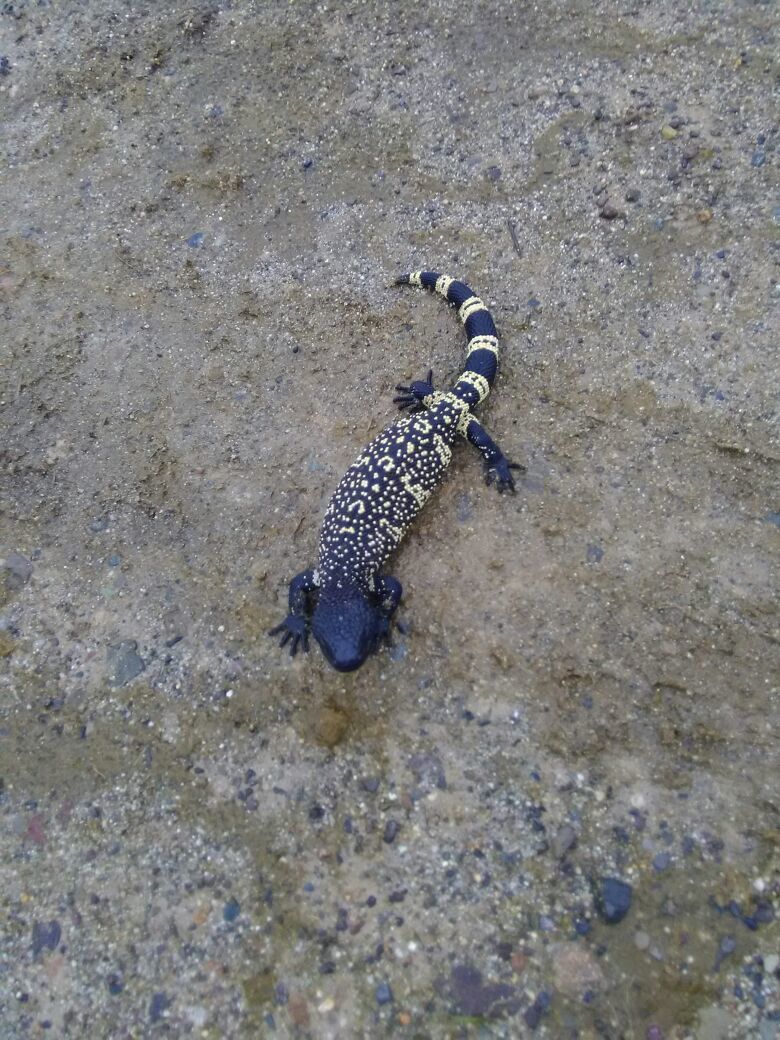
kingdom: Animalia
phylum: Chordata
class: Squamata
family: Helodermatidae
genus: Heloderma
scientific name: Heloderma horridum
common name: Mexican beaded lizard
